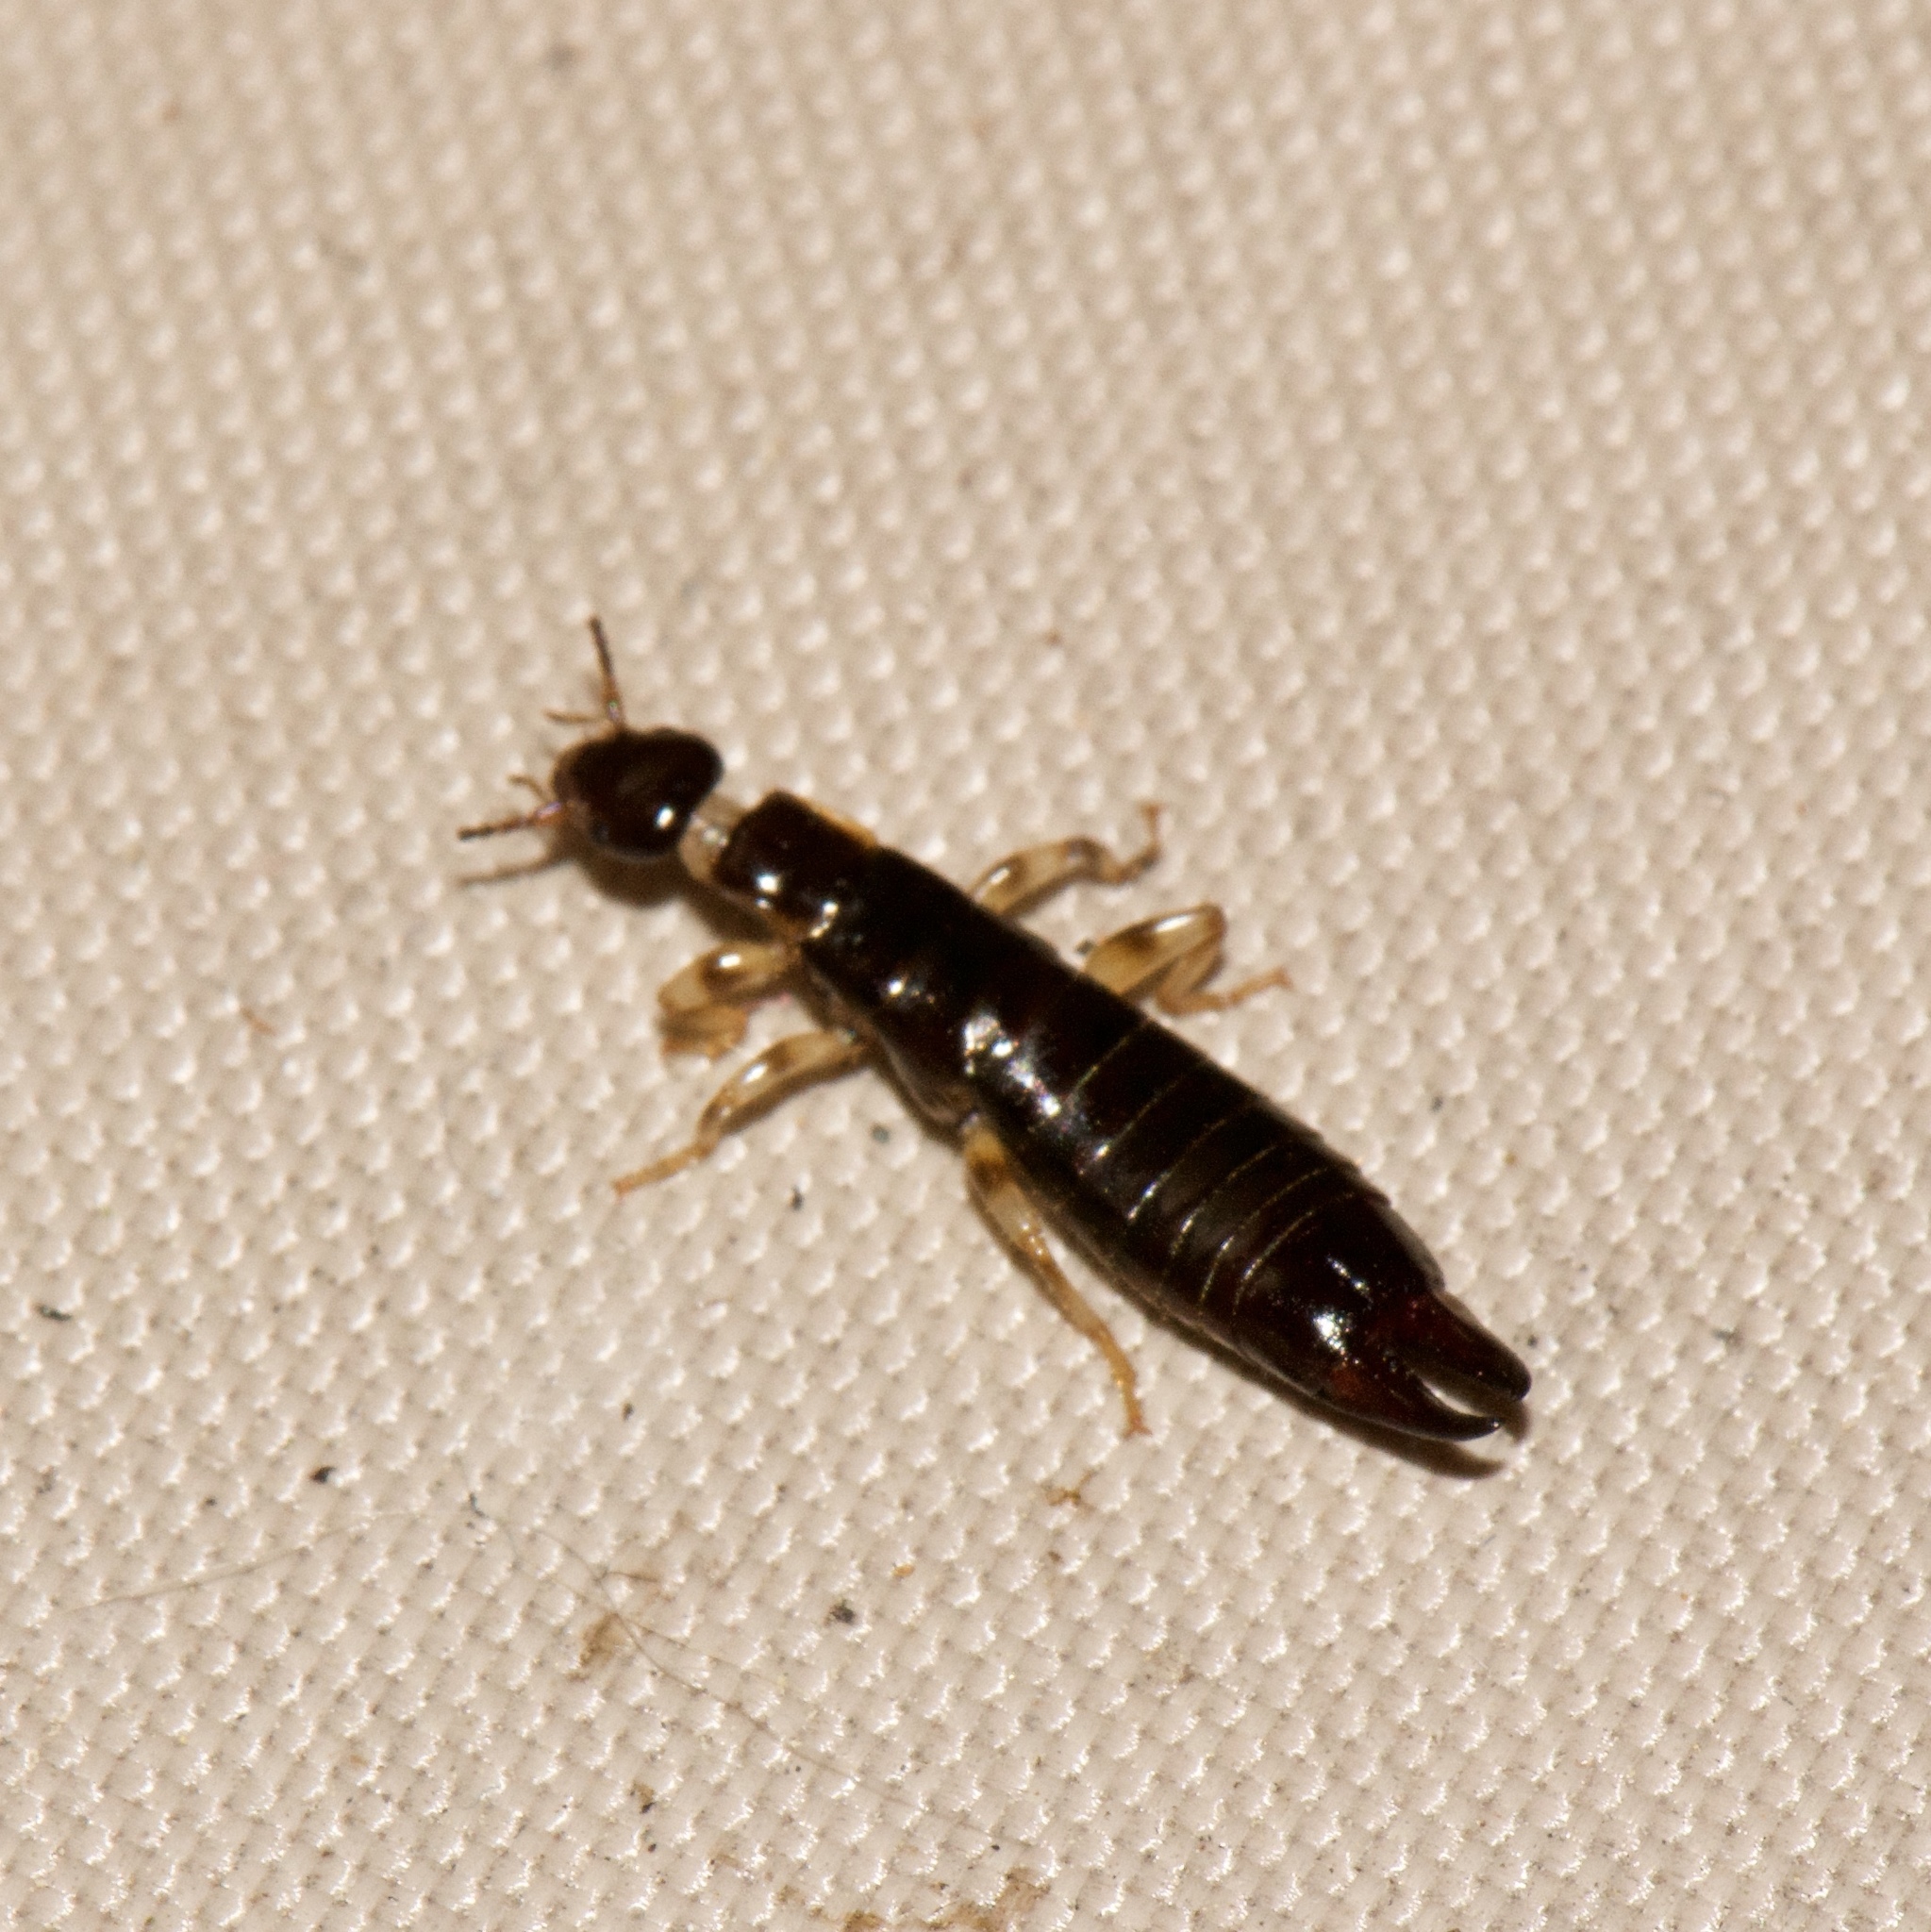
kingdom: Animalia
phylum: Arthropoda
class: Insecta
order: Dermaptera
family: Anisolabididae
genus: Euborellia
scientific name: Euborellia annulipes
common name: Ringlegged earwig
